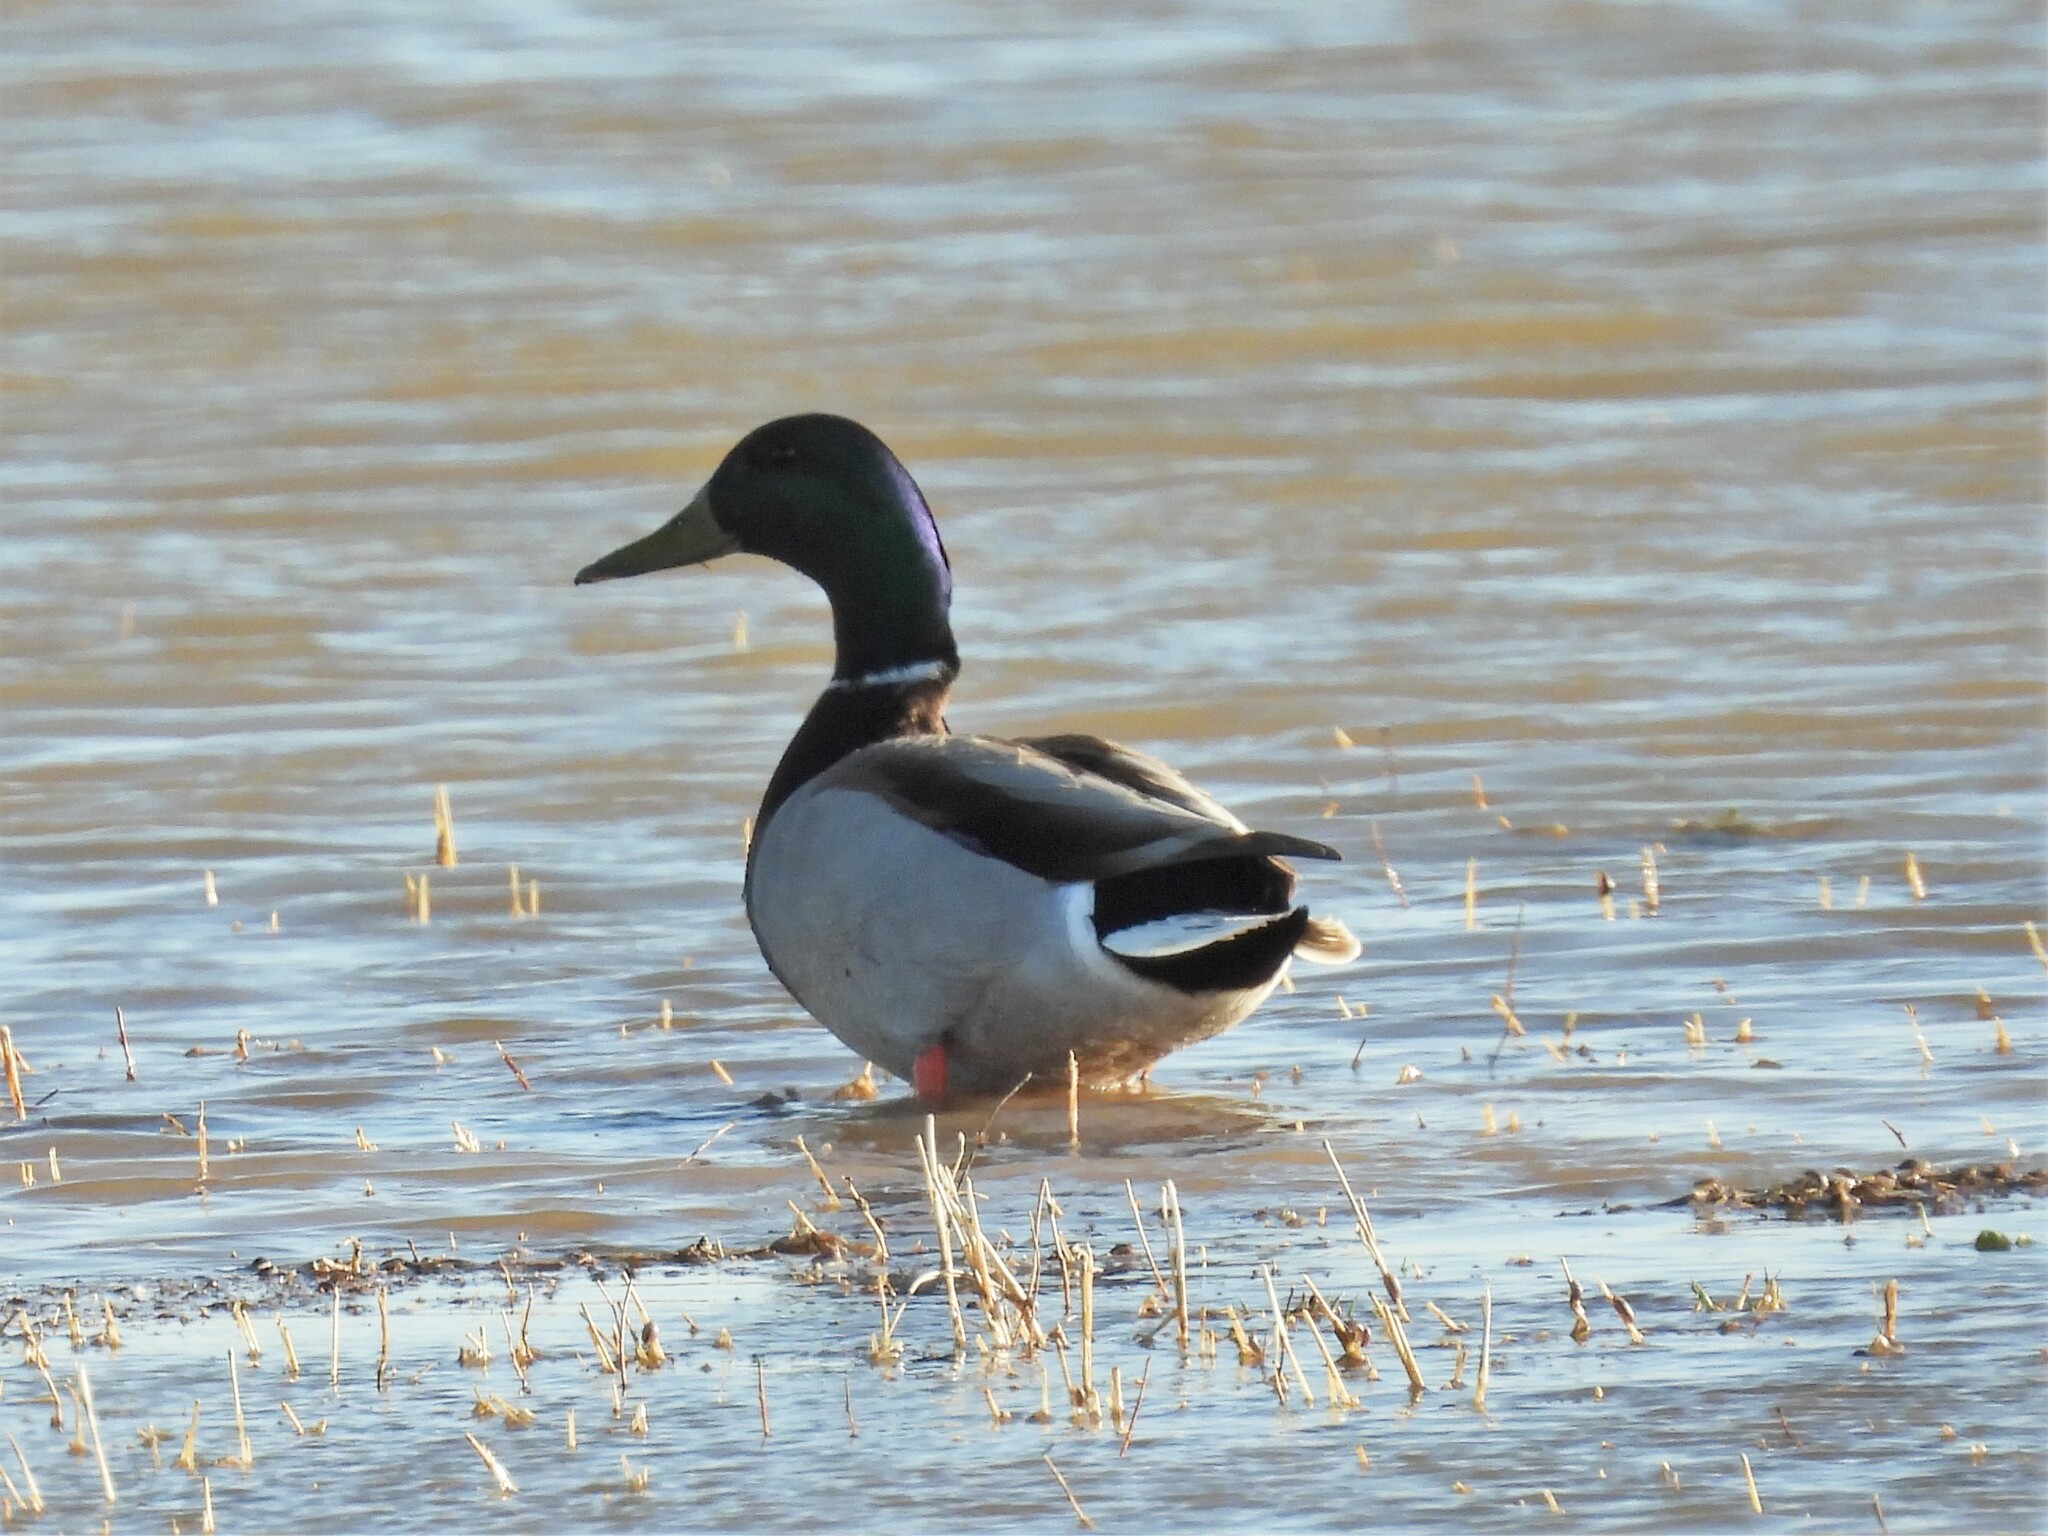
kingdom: Animalia
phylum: Chordata
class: Aves
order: Anseriformes
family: Anatidae
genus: Anas
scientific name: Anas platyrhynchos
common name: Mallard
